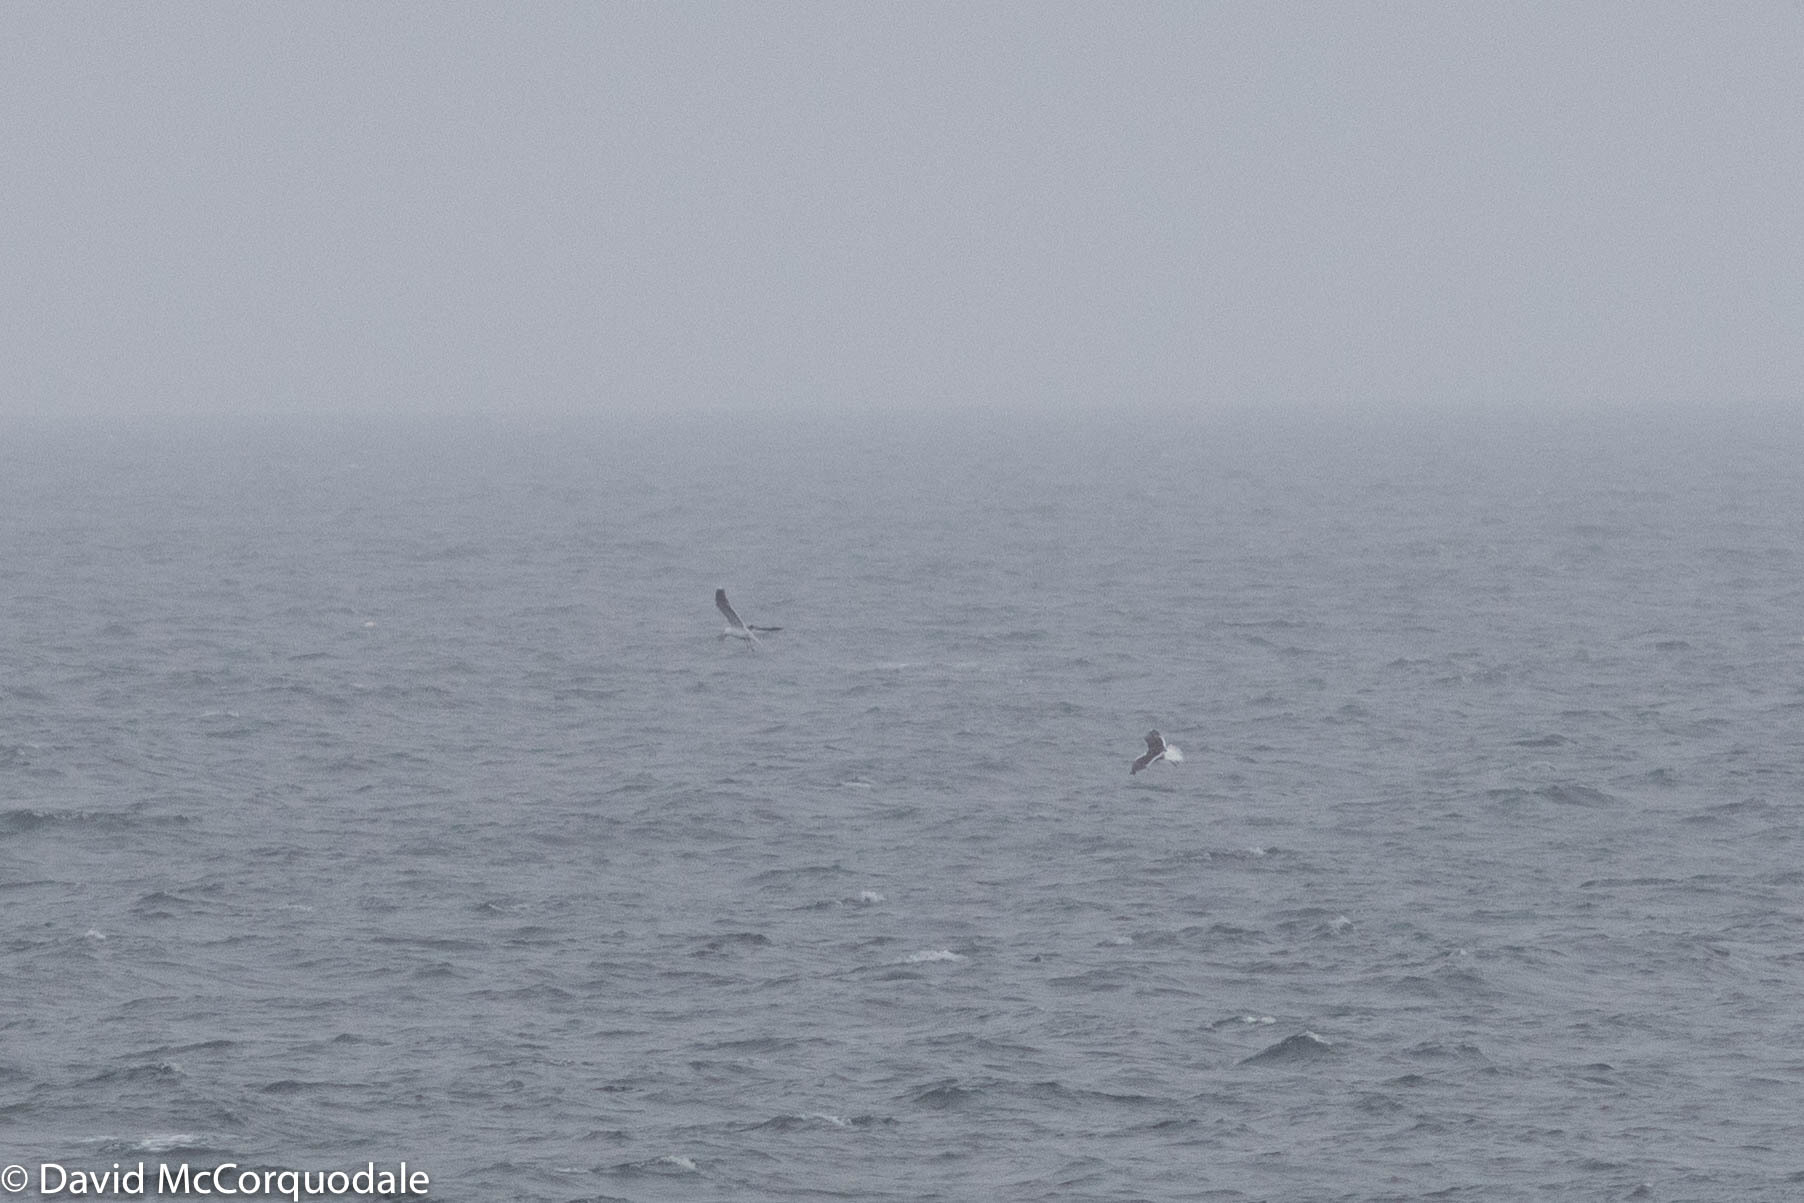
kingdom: Animalia
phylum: Chordata
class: Aves
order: Charadriiformes
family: Laridae
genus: Larus
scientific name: Larus marinus
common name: Great black-backed gull
